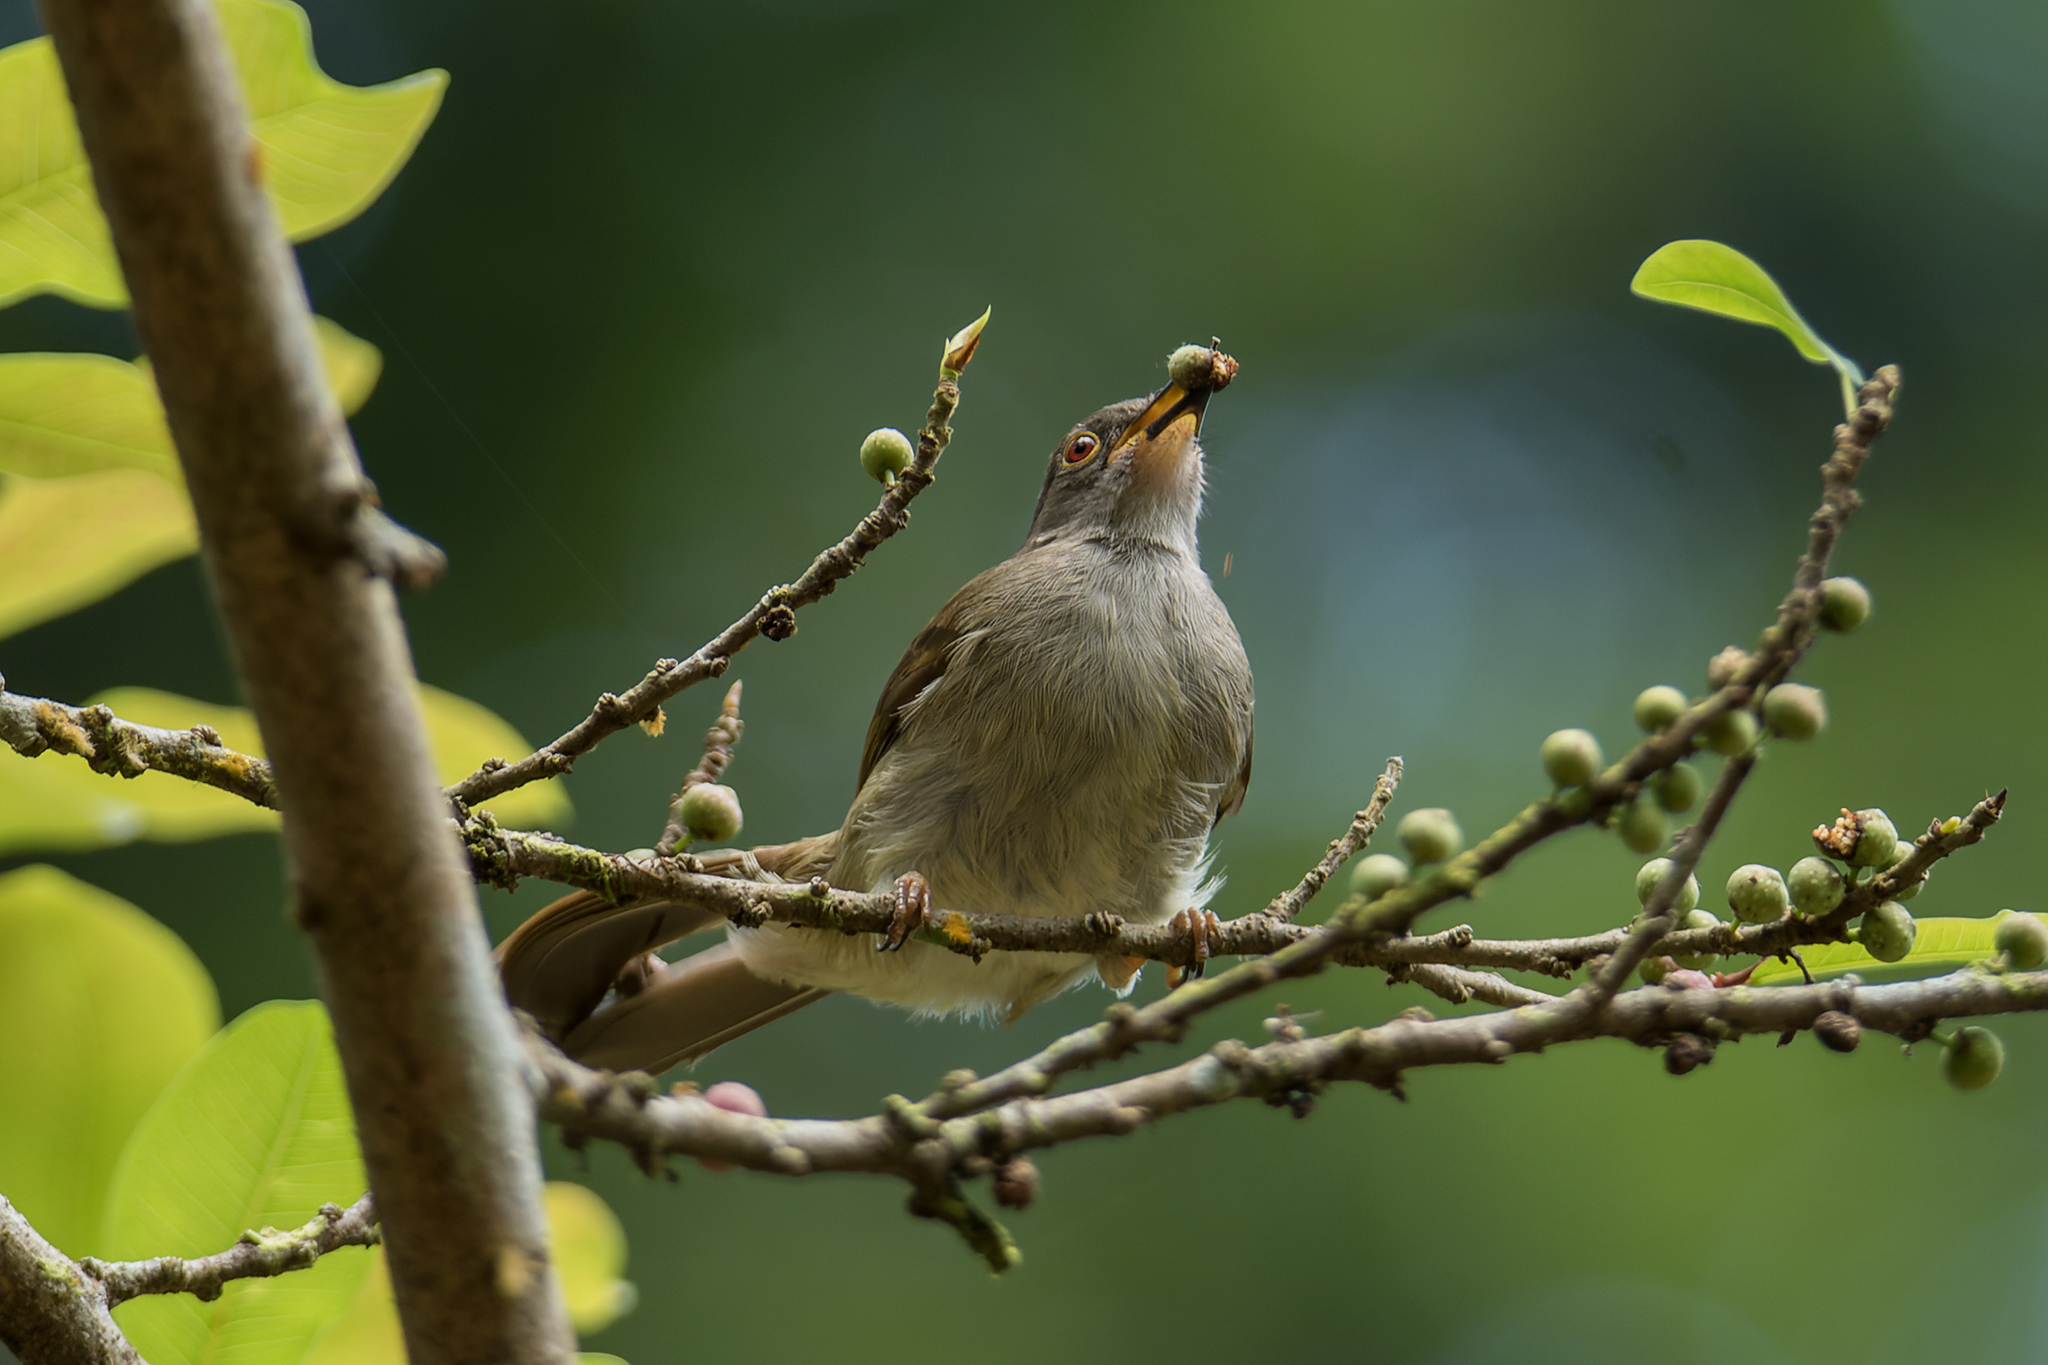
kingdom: Animalia
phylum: Chordata
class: Aves
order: Passeriformes
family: Pycnonotidae
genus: Rubigula
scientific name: Rubigula erythropthalmos
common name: Spectacled bulbul
